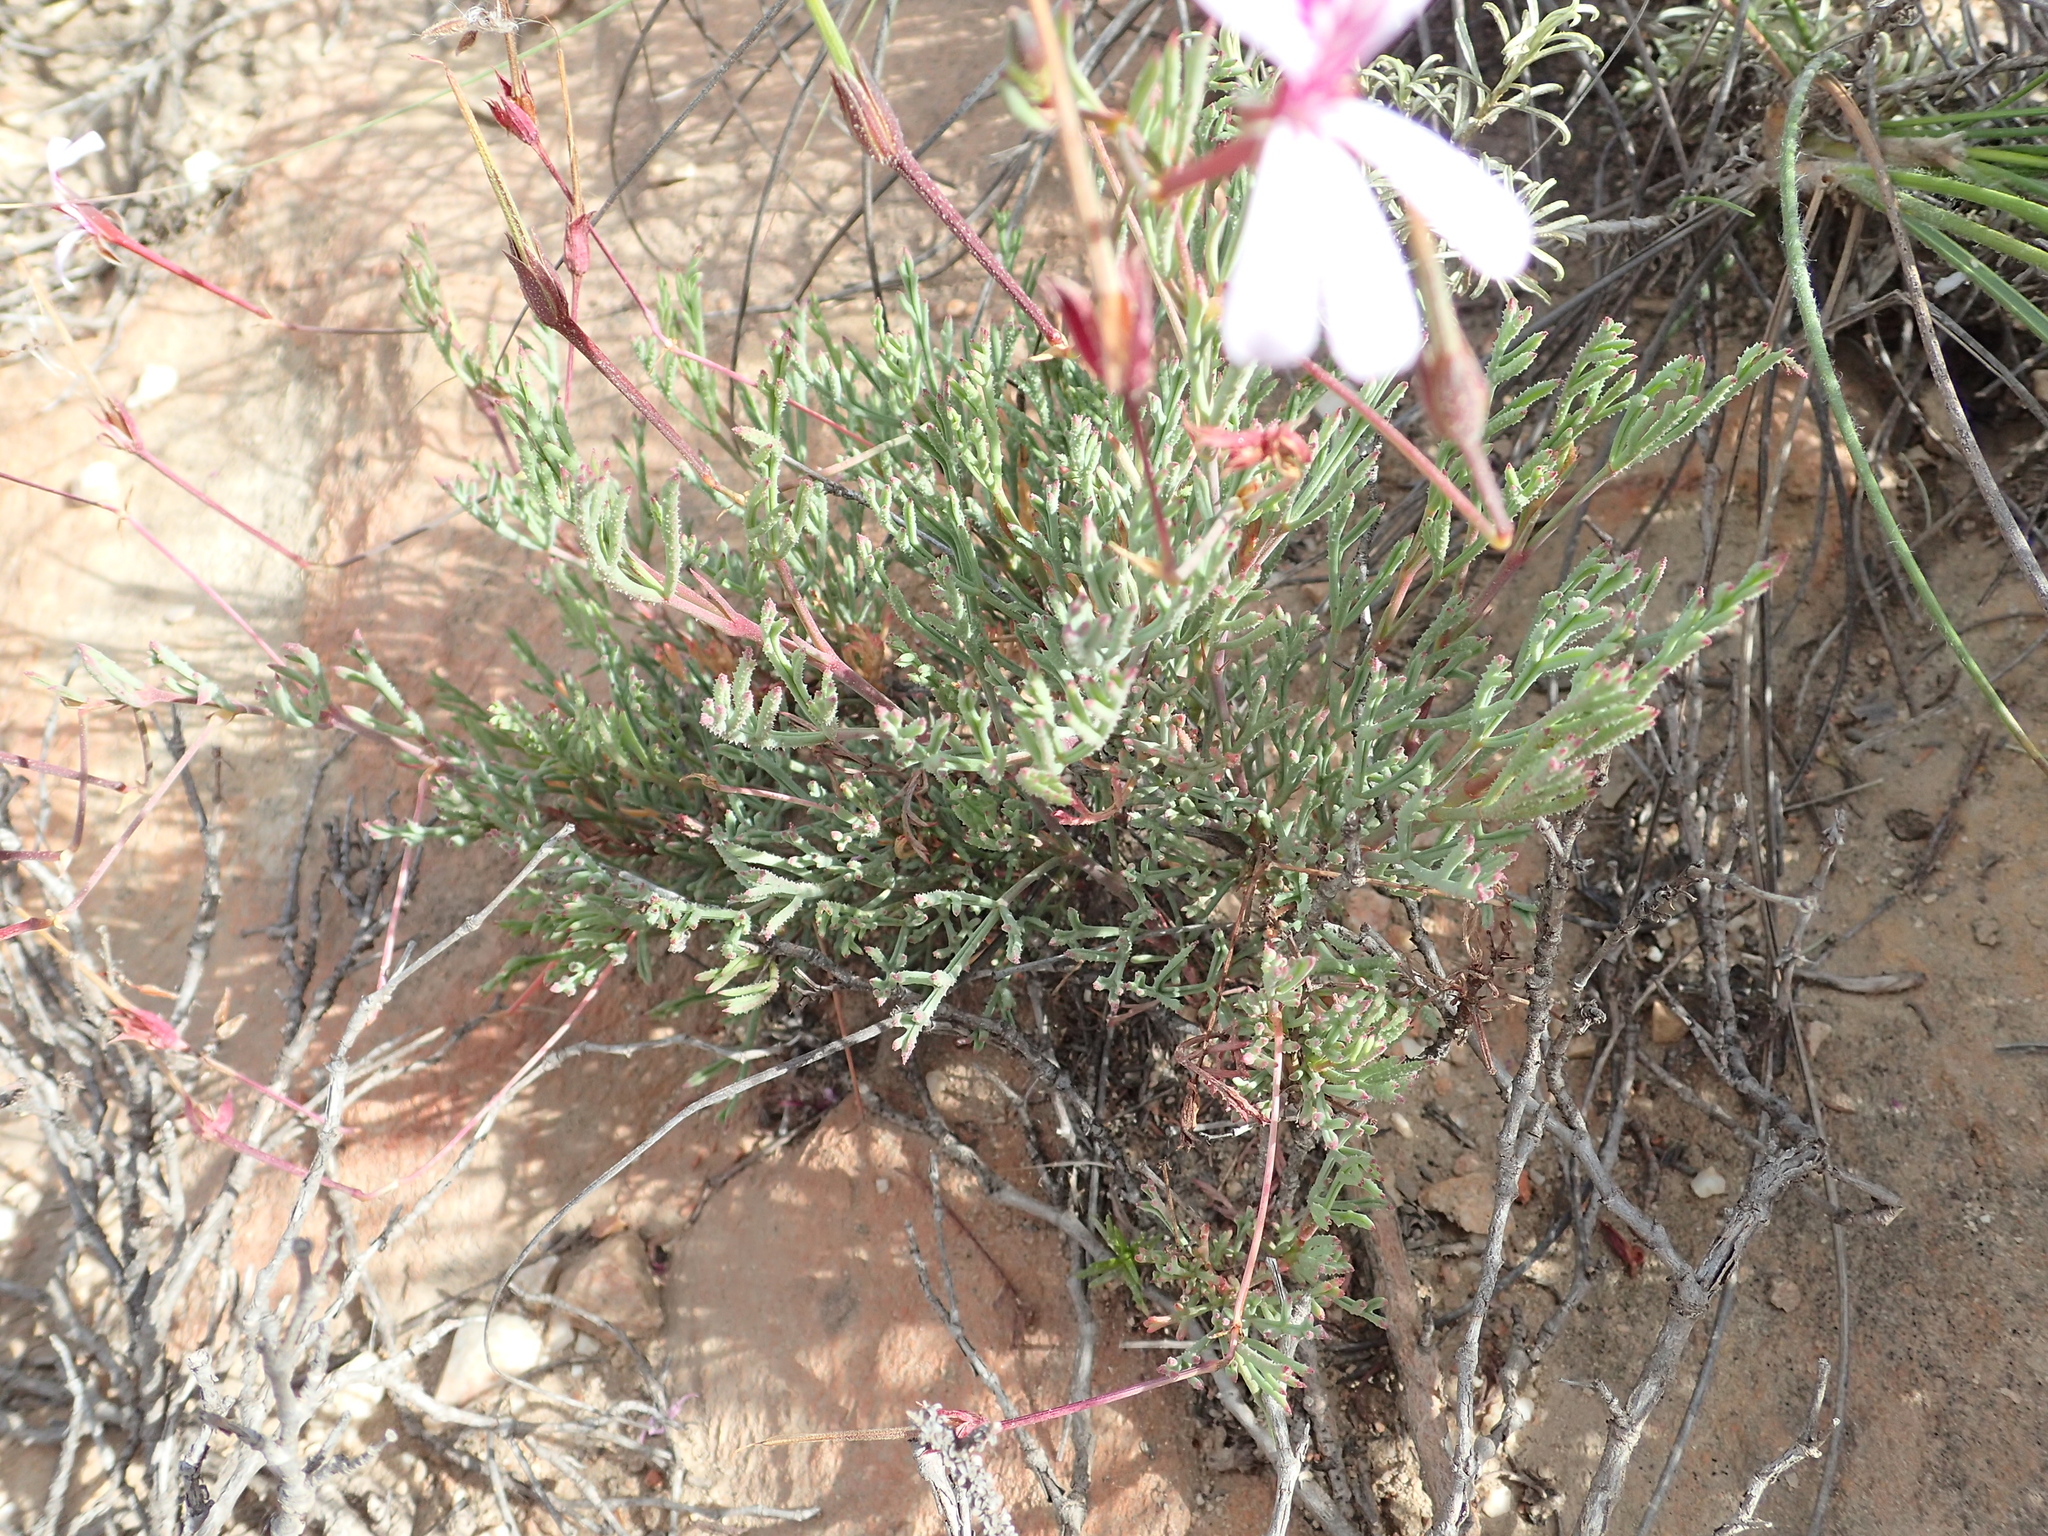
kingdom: Plantae
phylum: Tracheophyta
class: Magnoliopsida
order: Geraniales
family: Geraniaceae
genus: Pelargonium
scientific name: Pelargonium laevigatum
